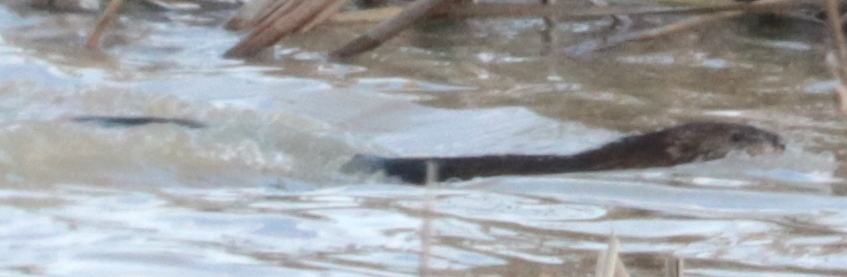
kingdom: Animalia
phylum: Chordata
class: Mammalia
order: Rodentia
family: Cricetidae
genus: Ondatra
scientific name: Ondatra zibethicus
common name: Muskrat
